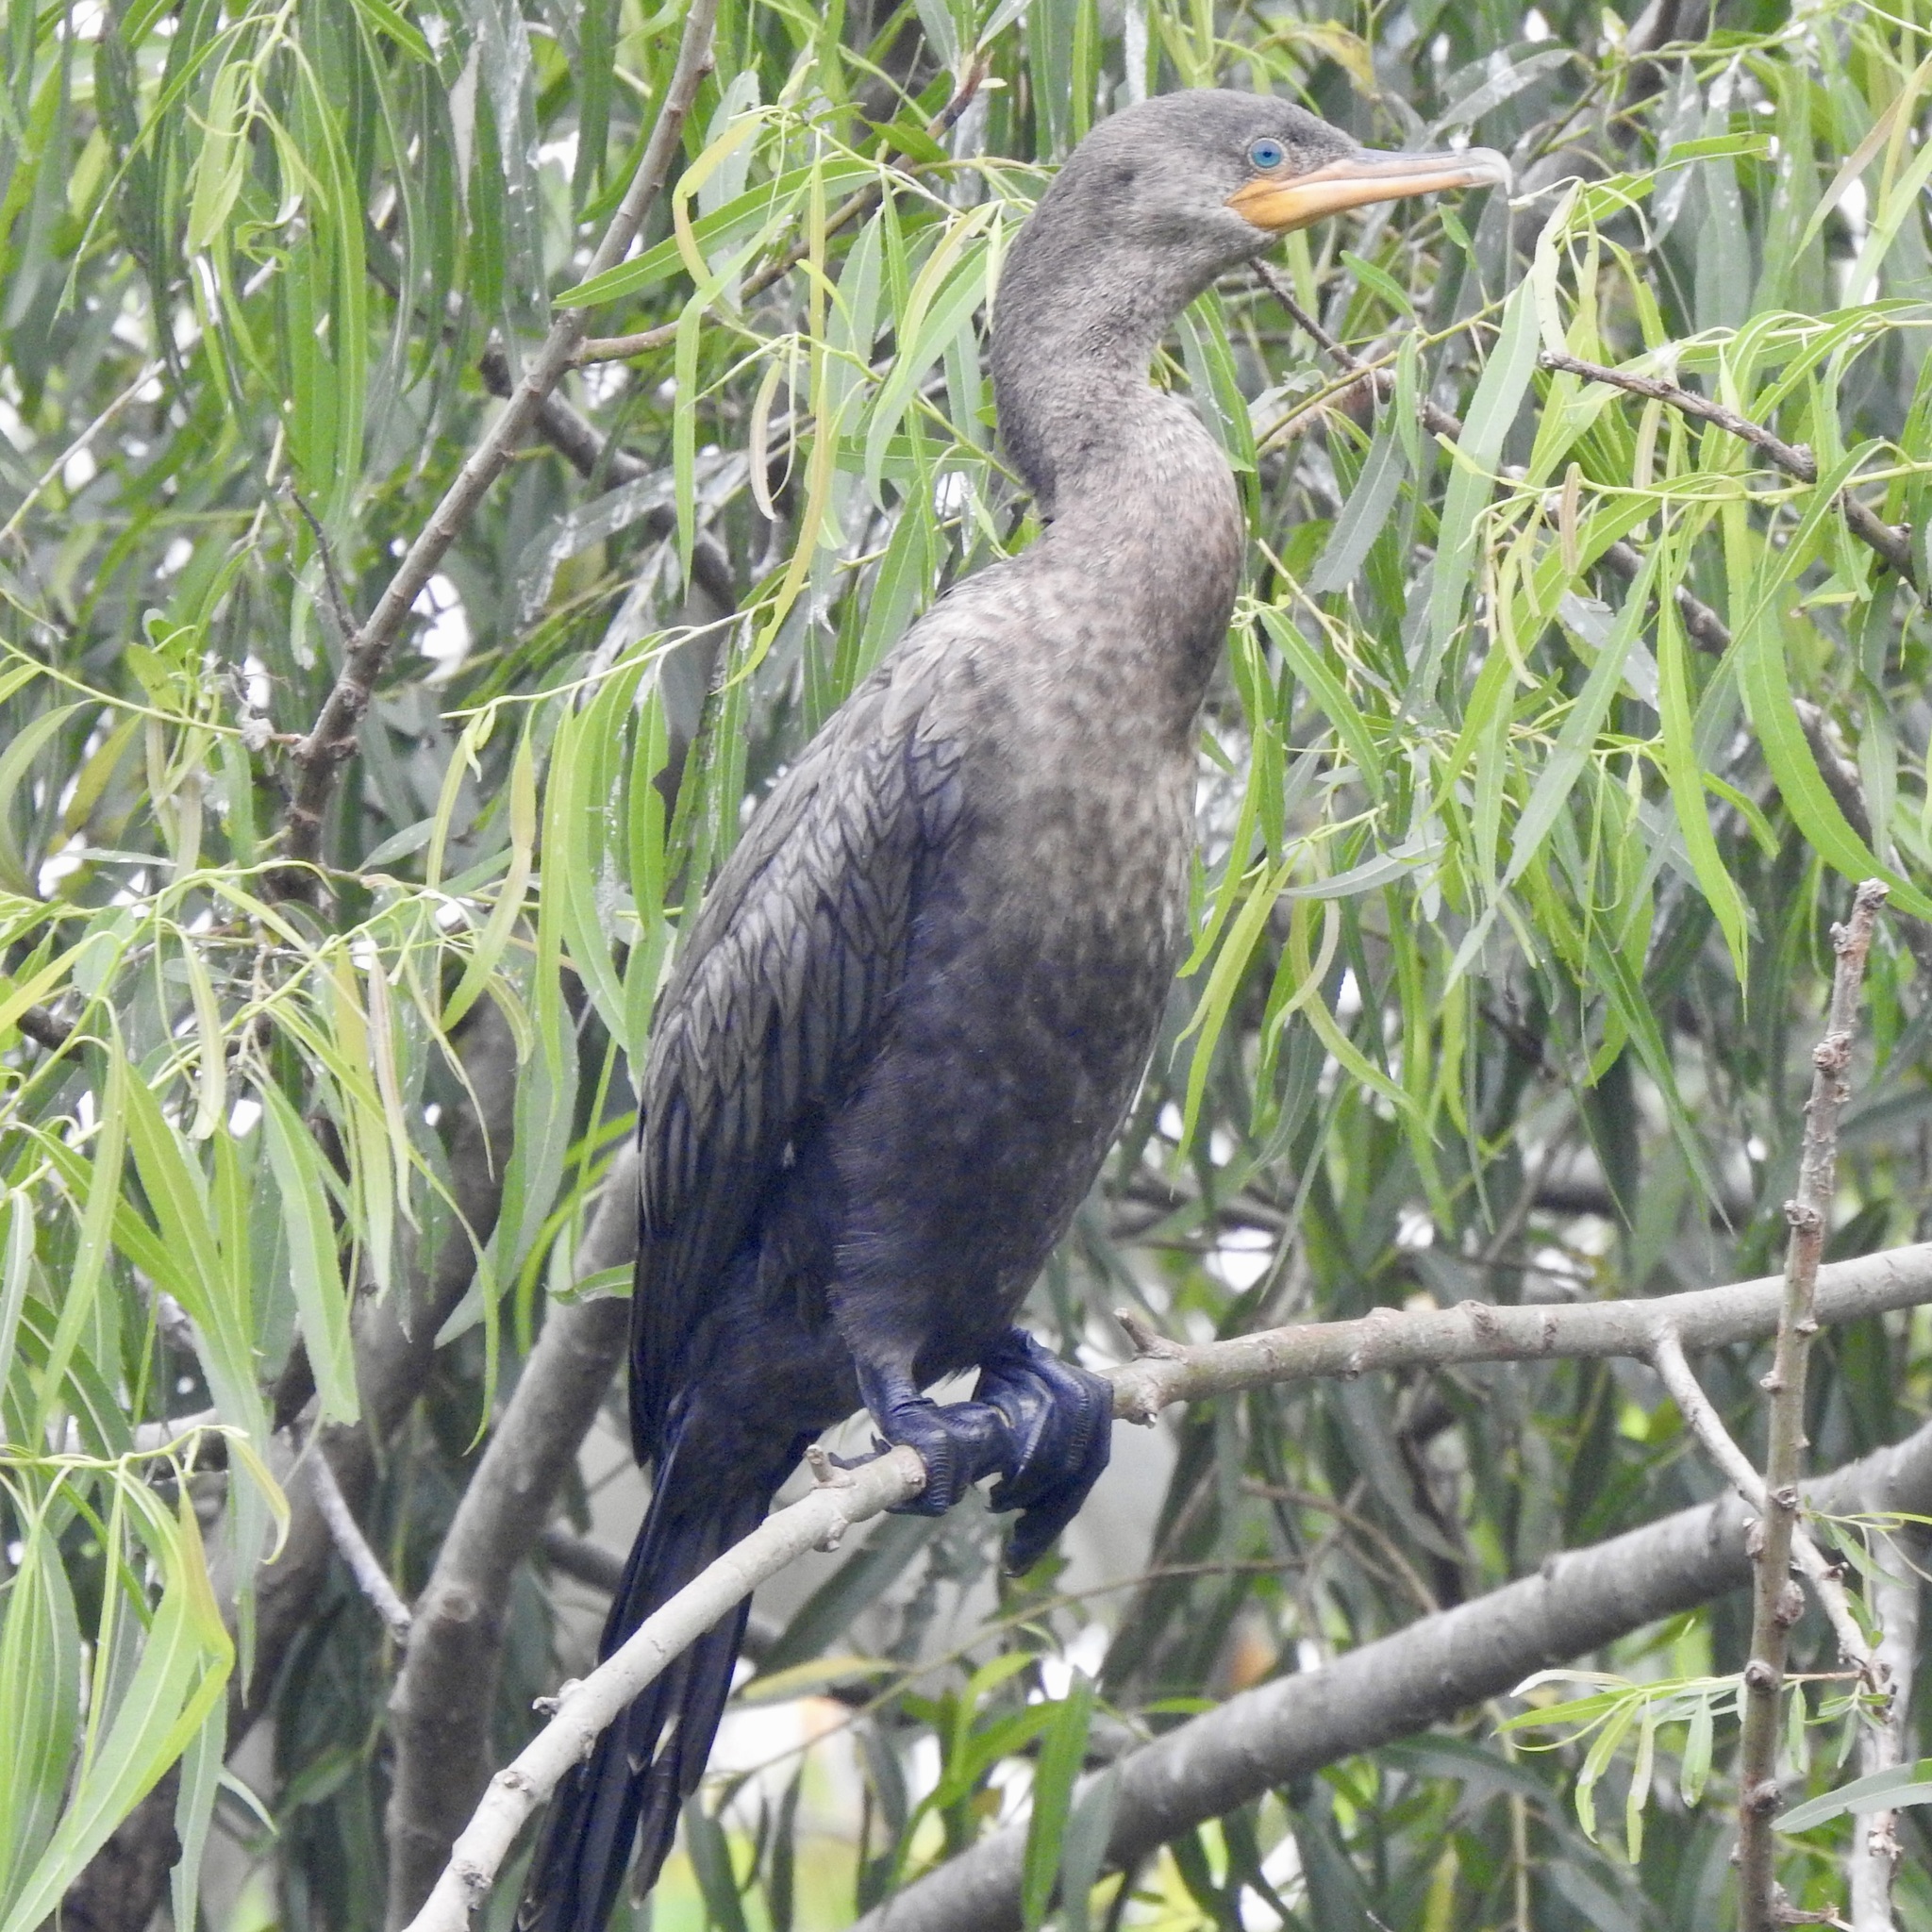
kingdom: Animalia
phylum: Chordata
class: Aves
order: Suliformes
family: Phalacrocoracidae
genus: Phalacrocorax
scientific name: Phalacrocorax brasilianus
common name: Neotropic cormorant
